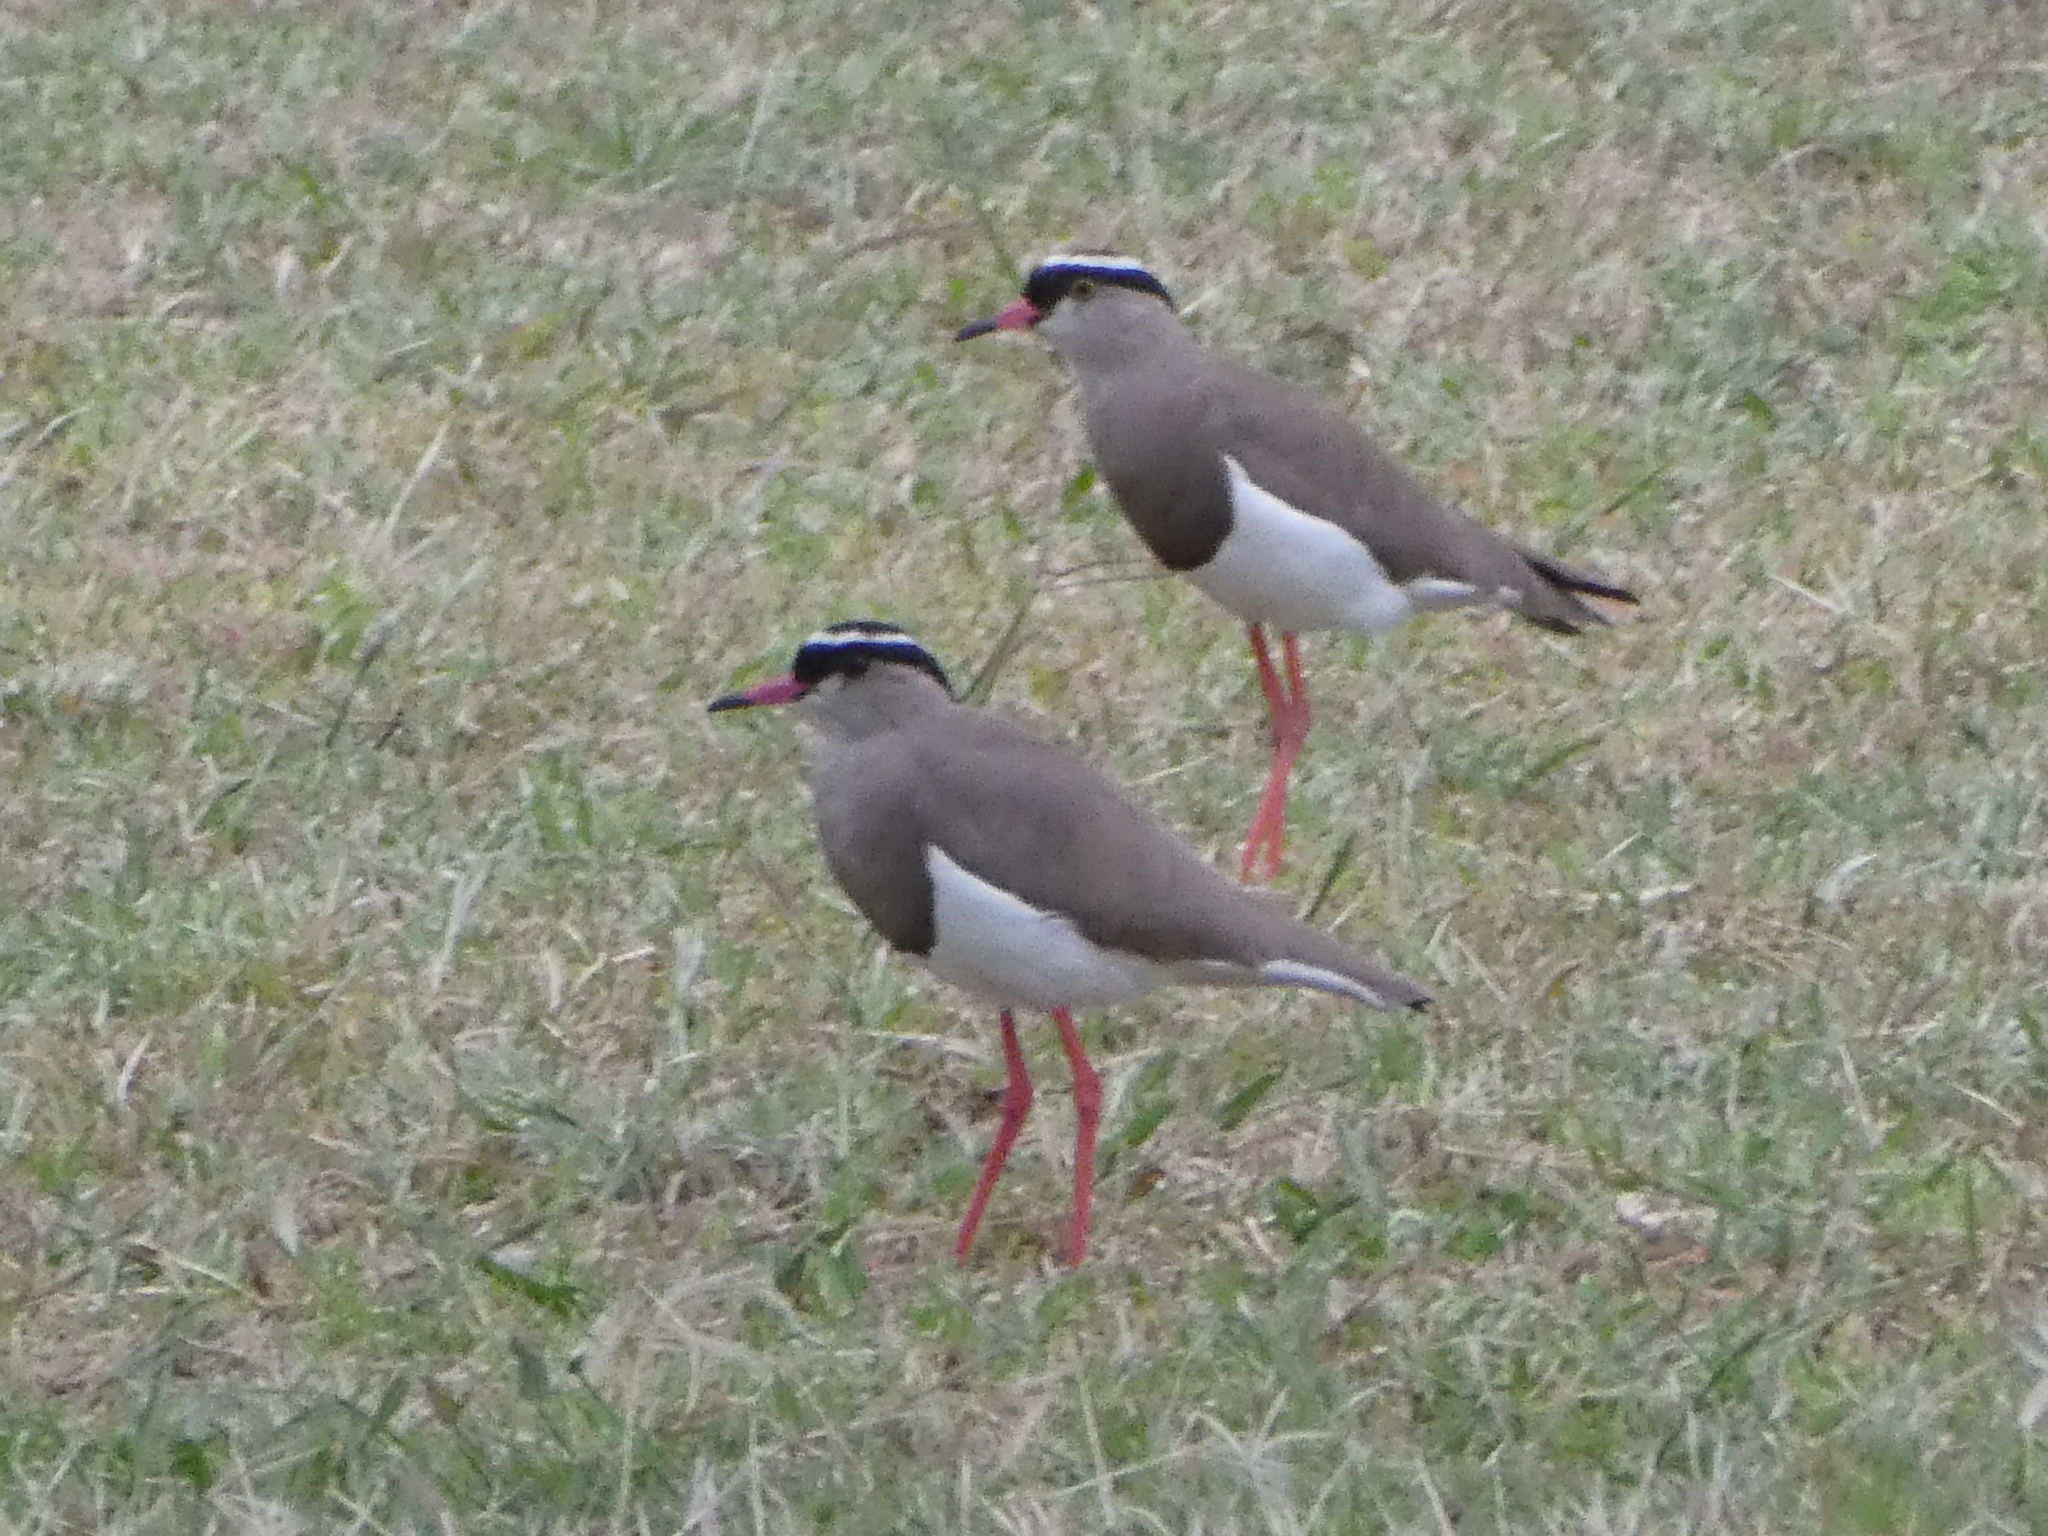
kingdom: Animalia
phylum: Chordata
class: Aves
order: Charadriiformes
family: Charadriidae
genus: Vanellus
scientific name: Vanellus coronatus
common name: Crowned lapwing
